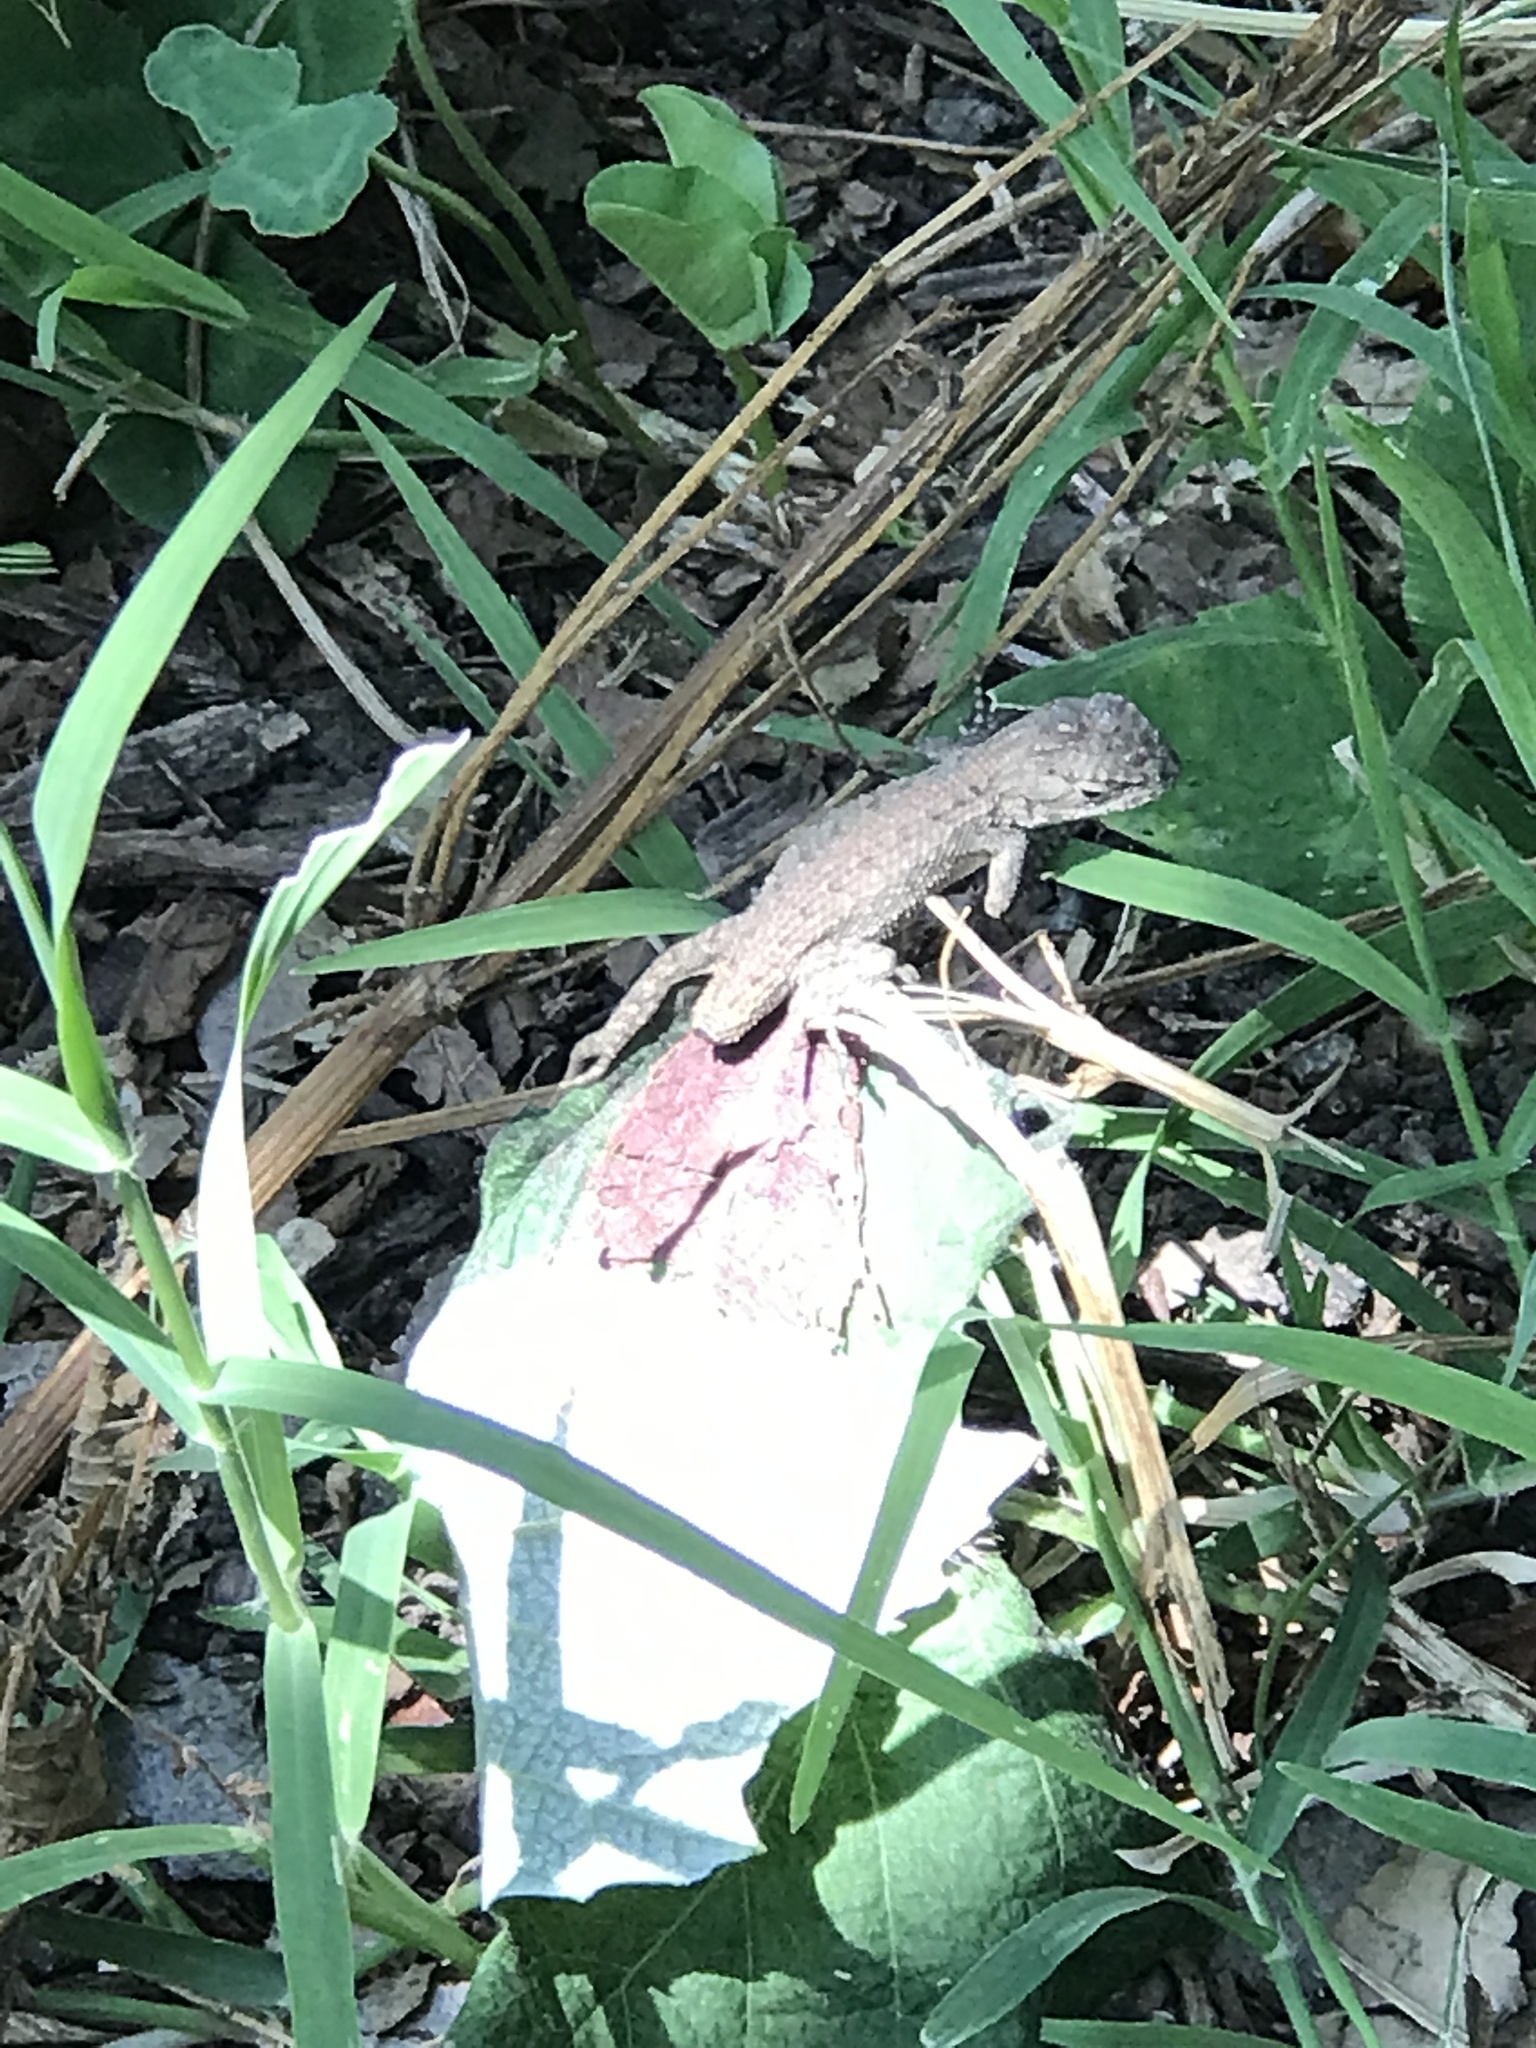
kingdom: Animalia
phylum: Chordata
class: Squamata
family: Phrynosomatidae
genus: Sceloporus
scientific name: Sceloporus occidentalis
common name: Western fence lizard
